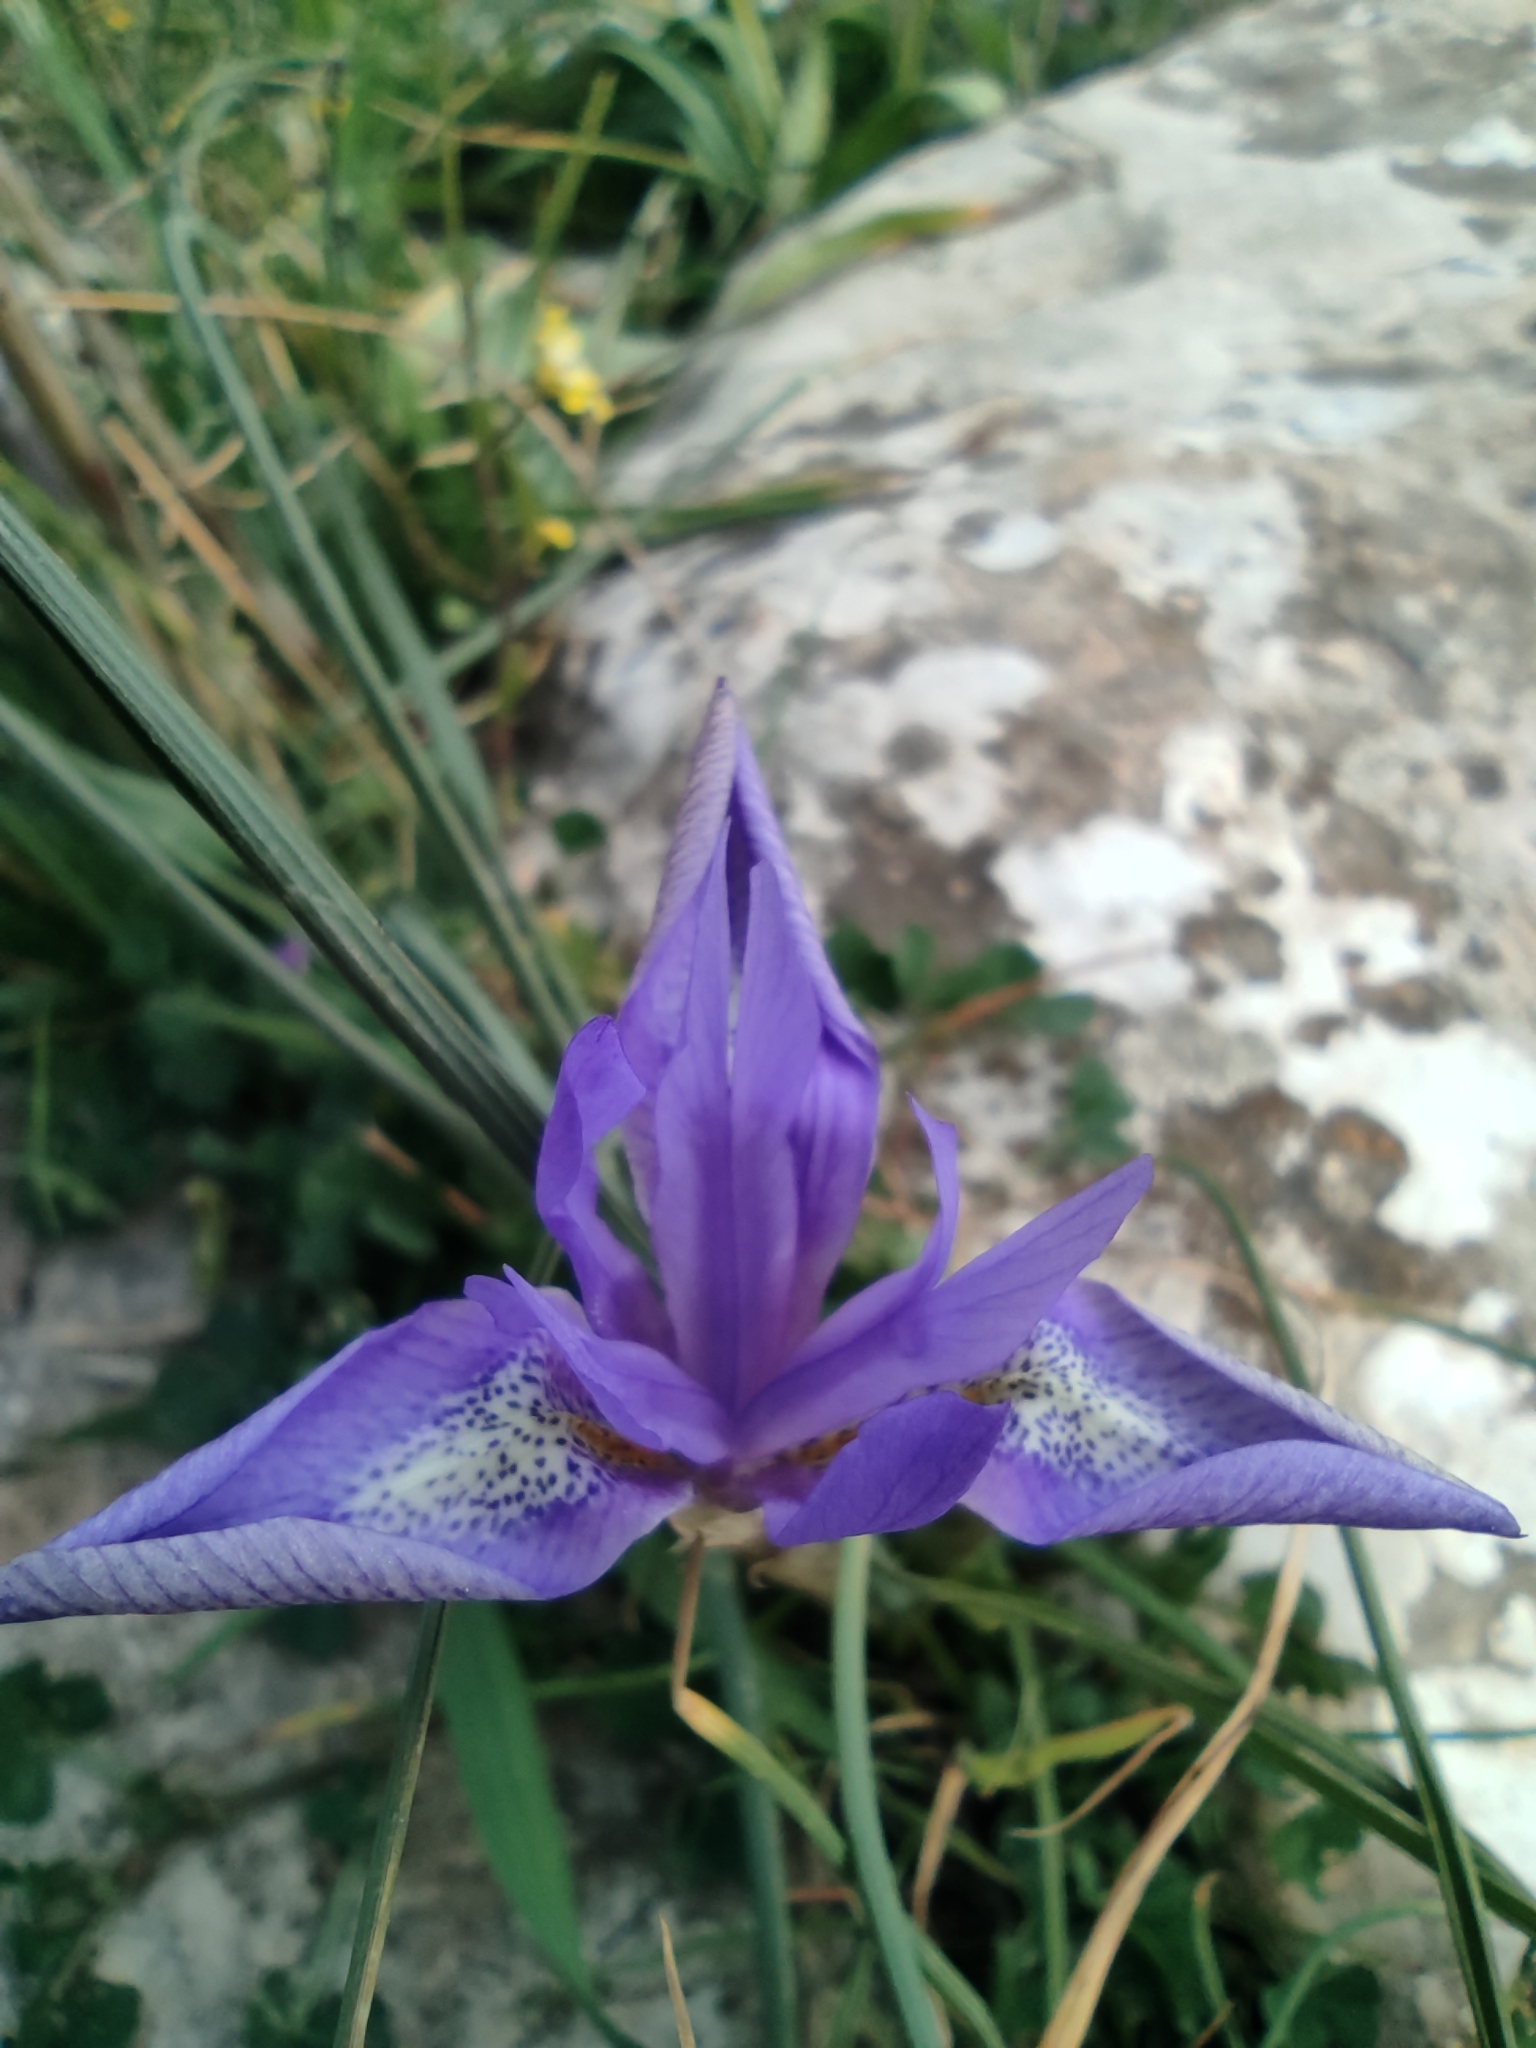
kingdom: Plantae
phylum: Tracheophyta
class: Liliopsida
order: Asparagales
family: Iridaceae
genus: Moraea
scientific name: Moraea sisyrinchium
